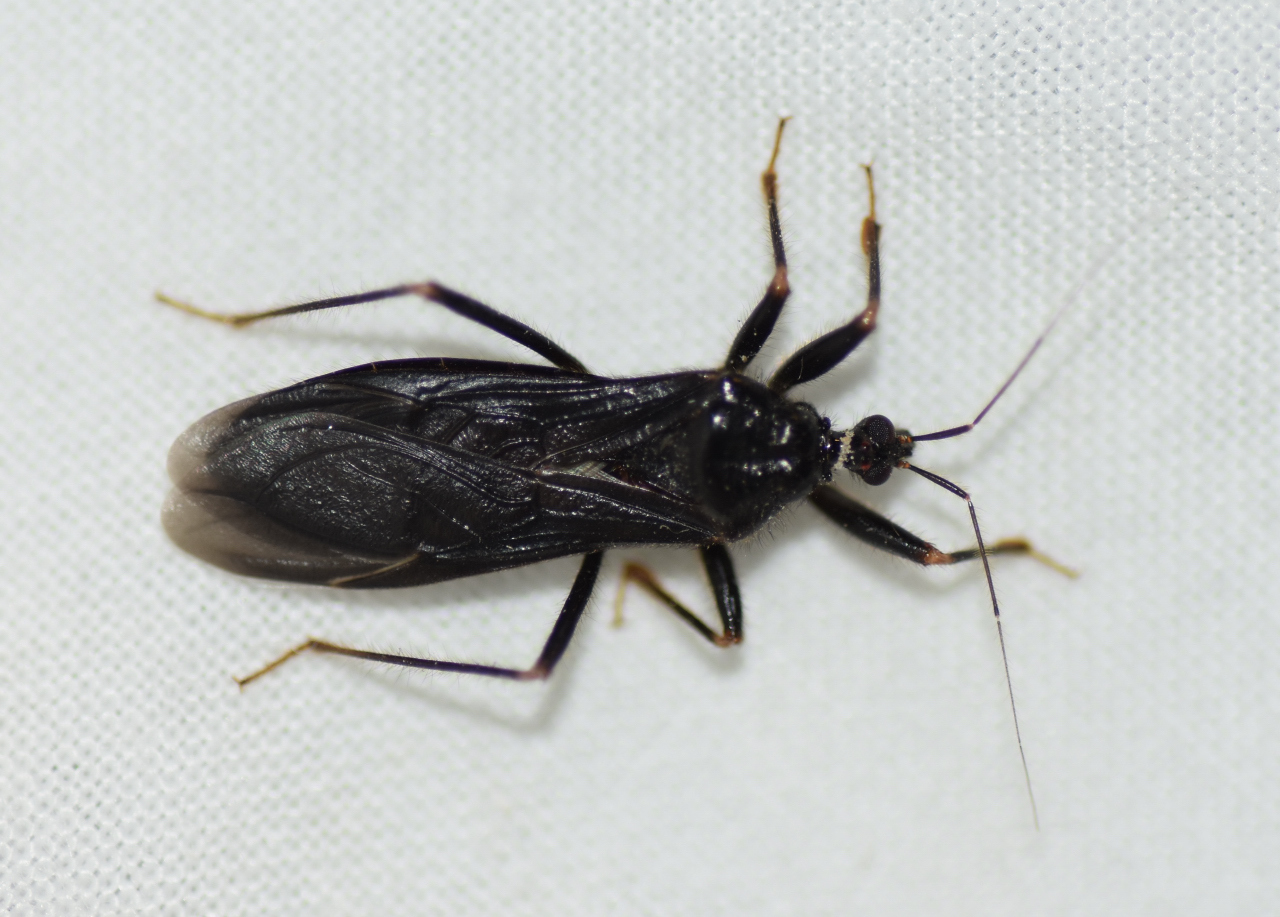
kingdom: Animalia
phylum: Arthropoda
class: Insecta
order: Hemiptera
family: Reduviidae
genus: Reduvius
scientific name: Reduvius personatus
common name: Masked hunter
